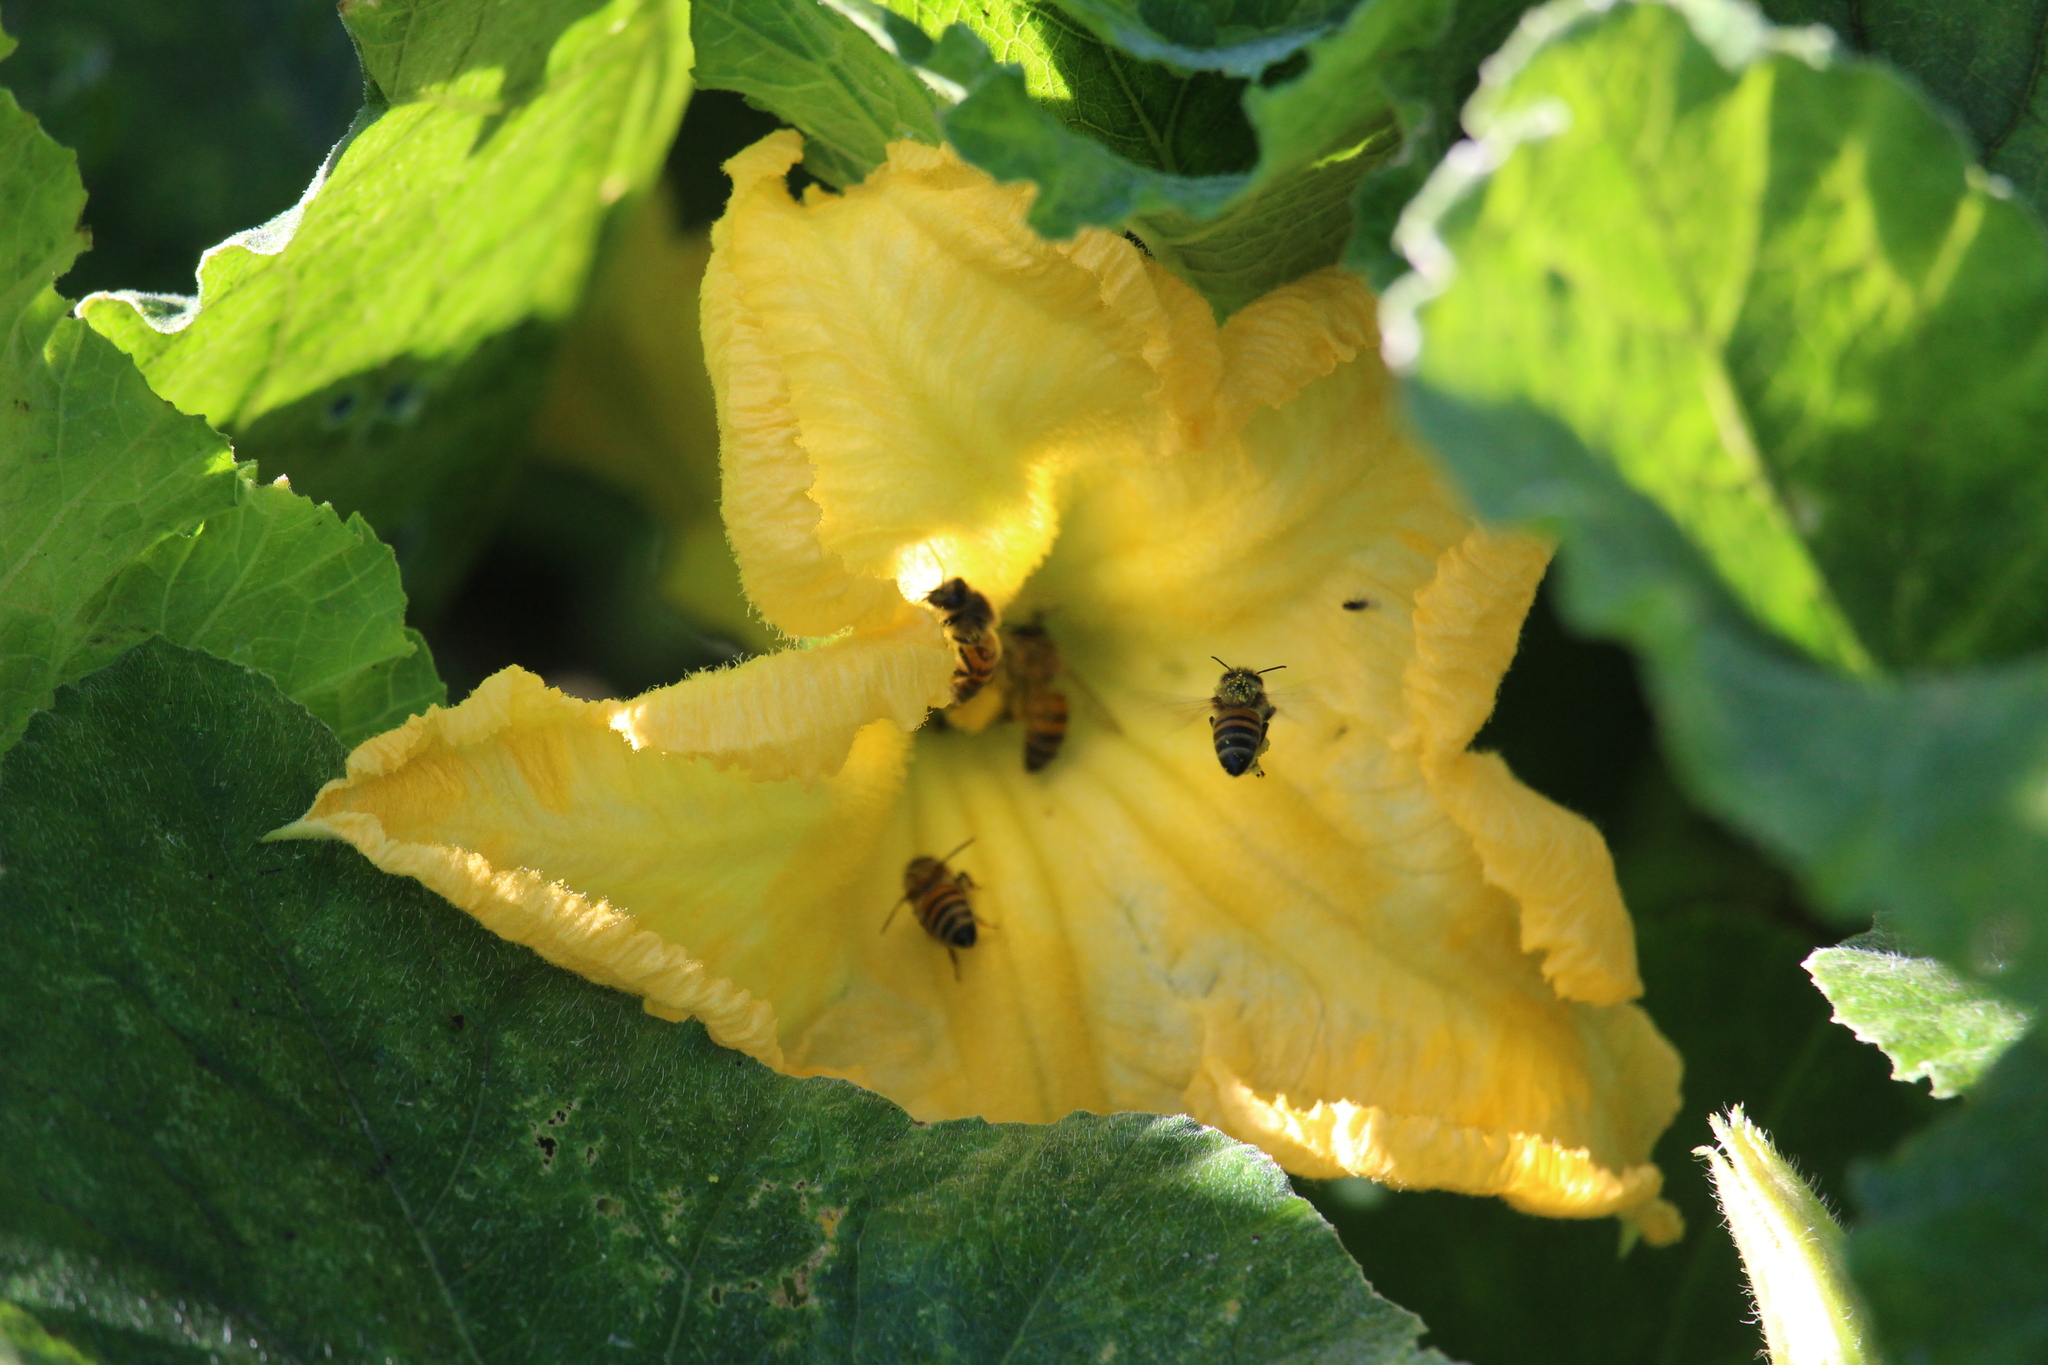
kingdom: Animalia
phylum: Arthropoda
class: Insecta
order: Hymenoptera
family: Apidae
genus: Apis
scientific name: Apis mellifera
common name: Honey bee
